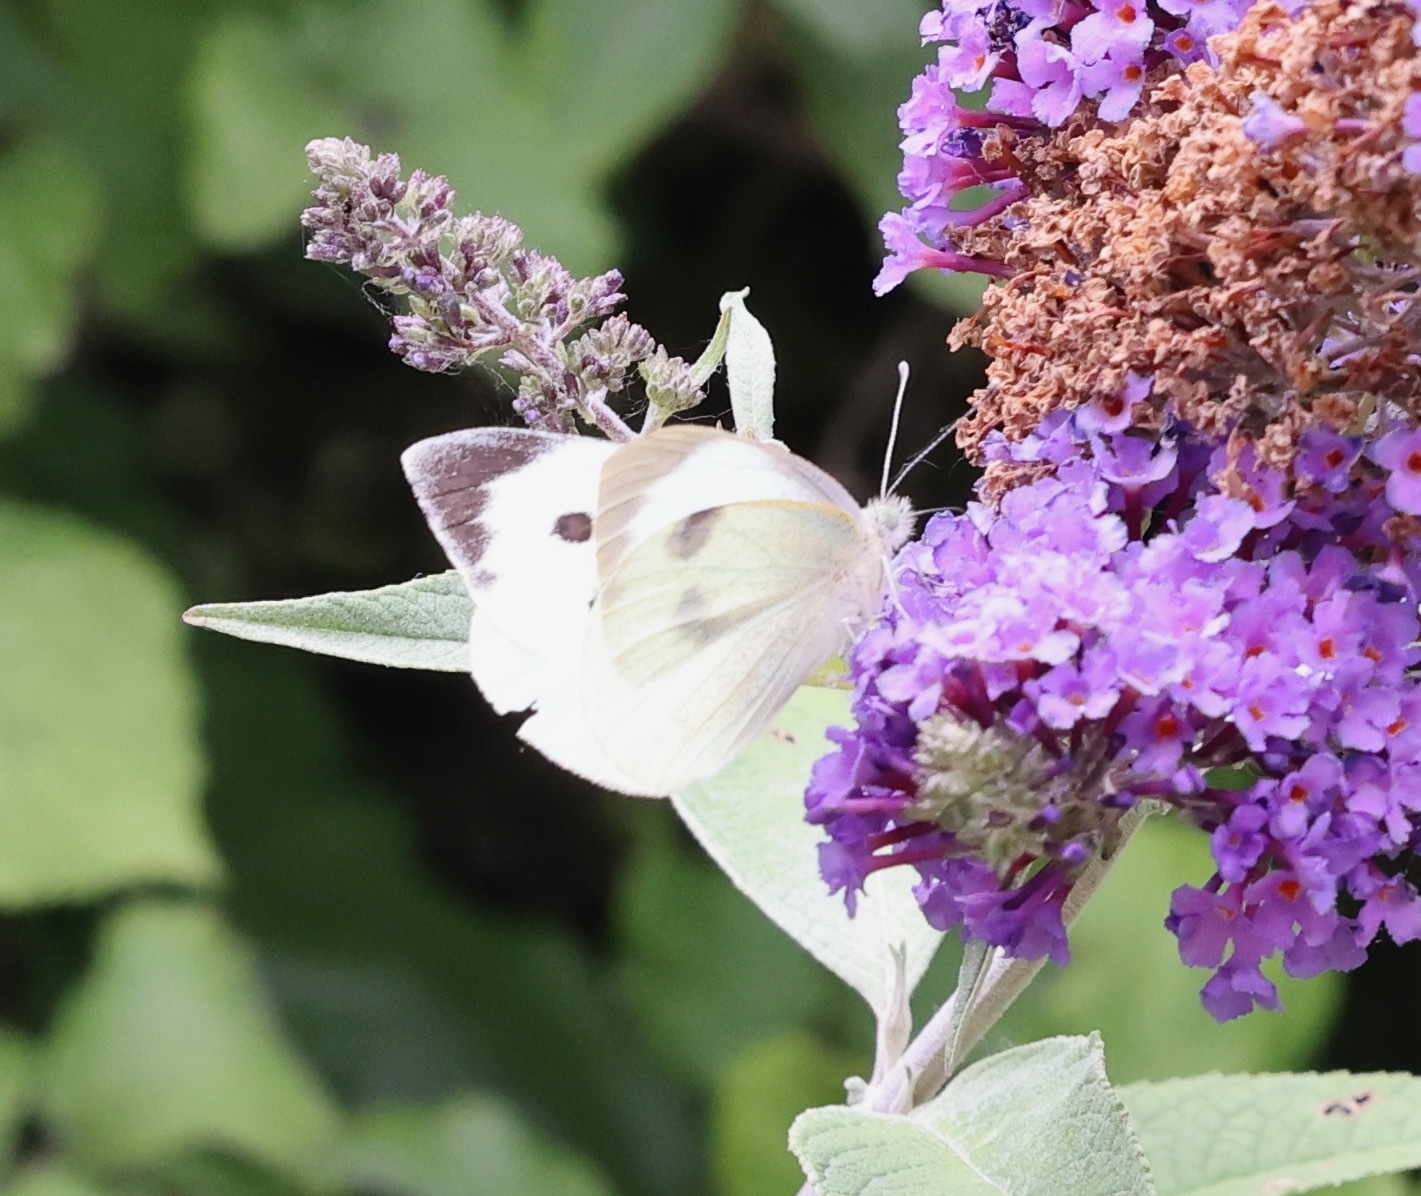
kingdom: Animalia
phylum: Arthropoda
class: Insecta
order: Lepidoptera
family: Pieridae
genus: Pieris
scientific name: Pieris brassicae
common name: Large white
